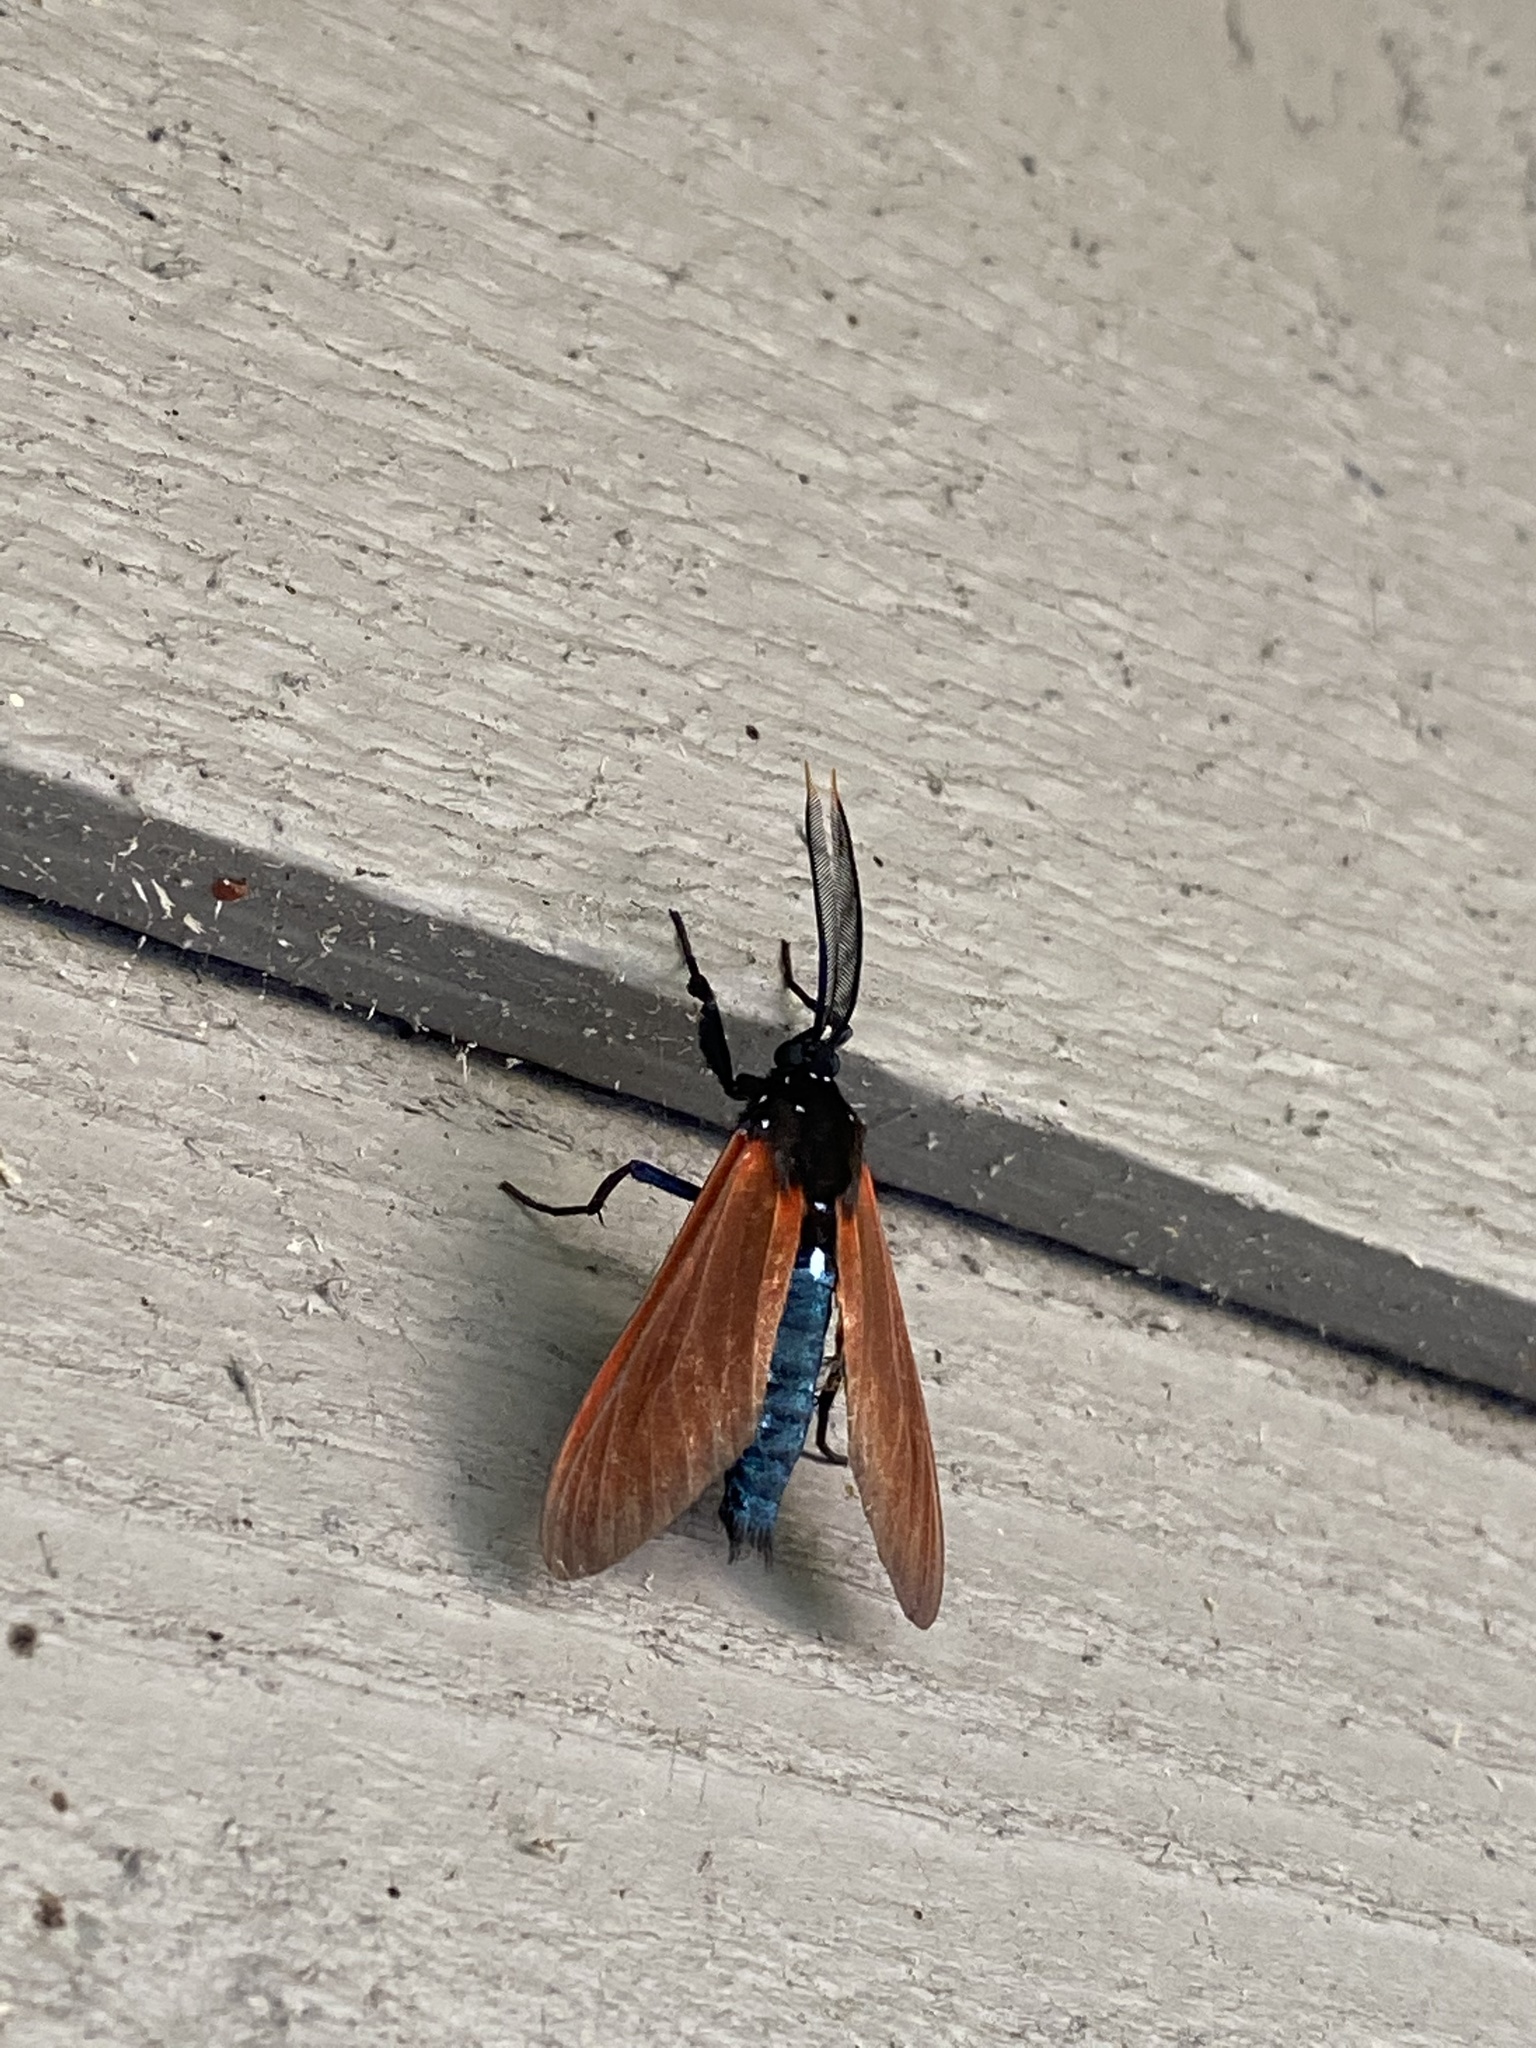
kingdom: Animalia
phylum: Arthropoda
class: Insecta
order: Lepidoptera
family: Erebidae
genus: Empyreuma
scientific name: Empyreuma pugione
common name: Spotted oleander caterpillar moth
